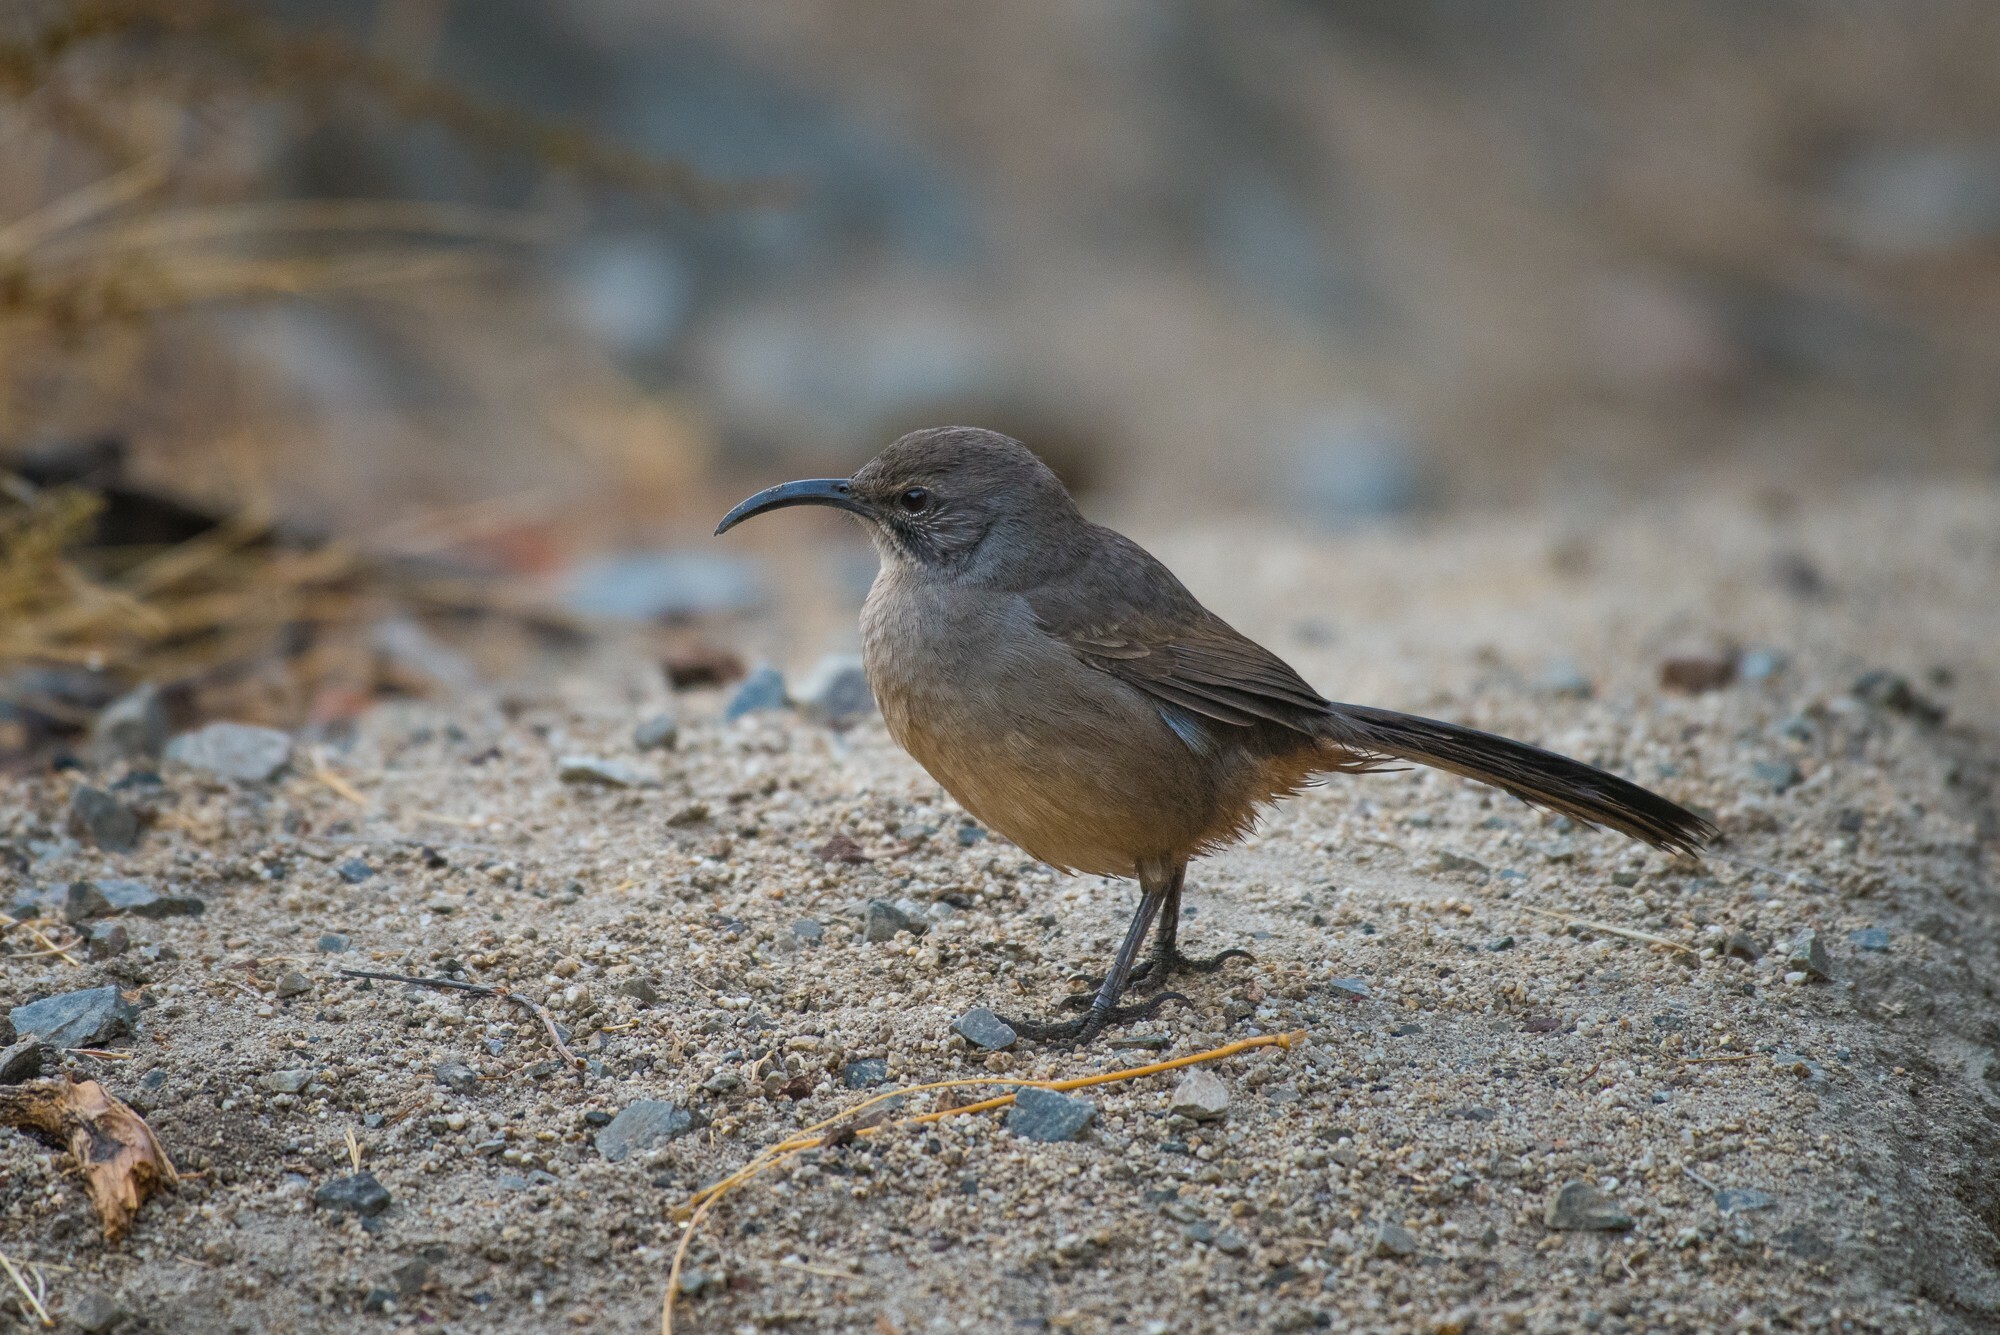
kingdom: Animalia
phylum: Chordata
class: Aves
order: Passeriformes
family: Mimidae
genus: Toxostoma
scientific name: Toxostoma redivivum
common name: California thrasher
